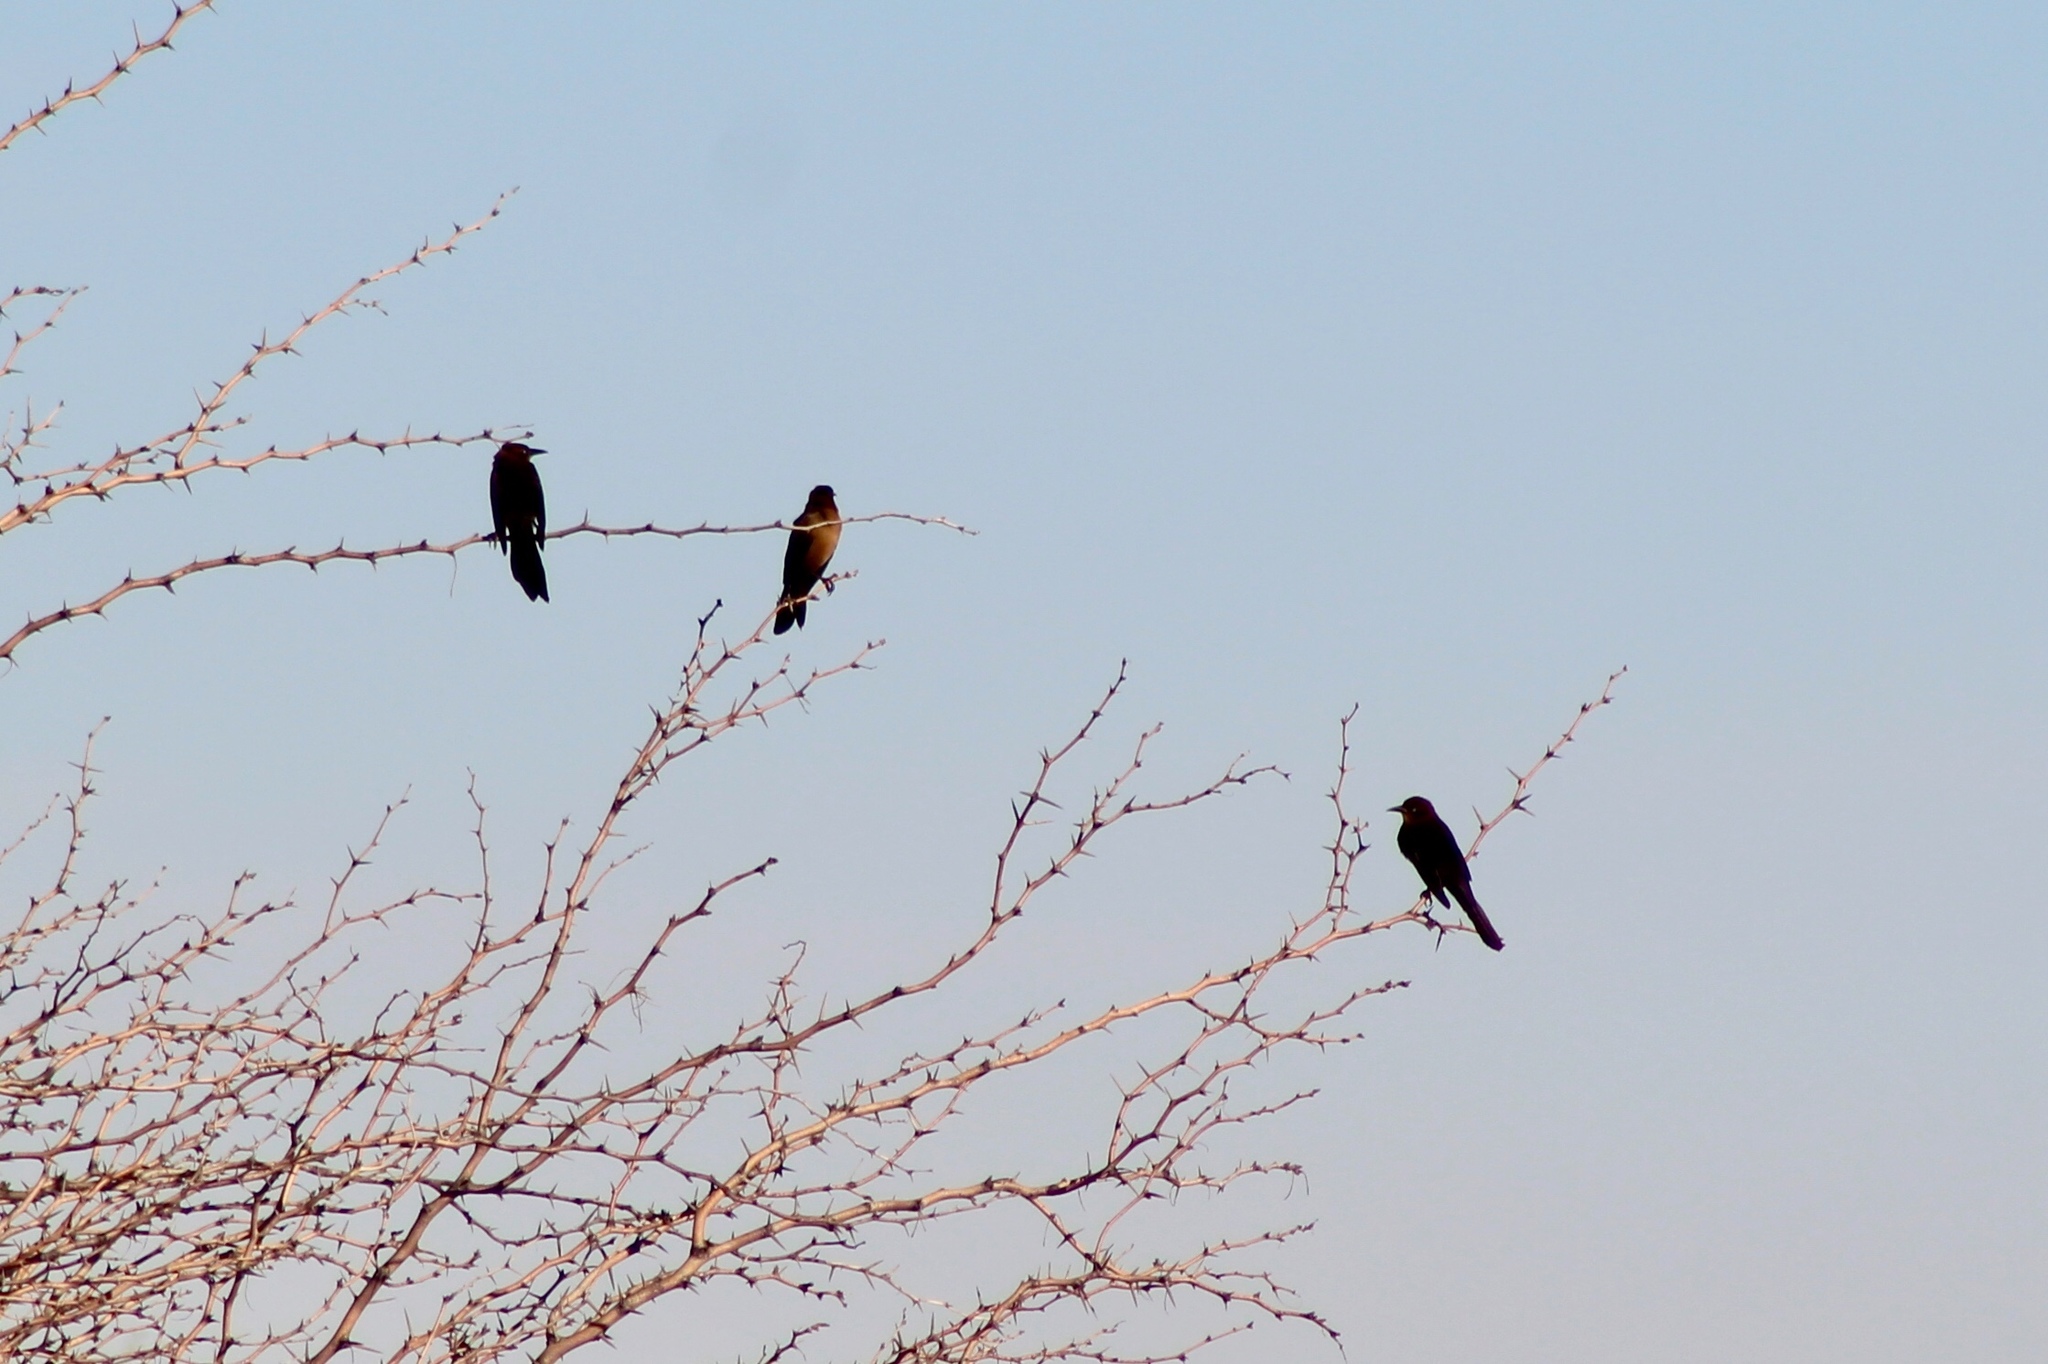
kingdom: Animalia
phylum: Chordata
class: Aves
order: Passeriformes
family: Icteridae
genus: Quiscalus
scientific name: Quiscalus mexicanus
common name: Great-tailed grackle
